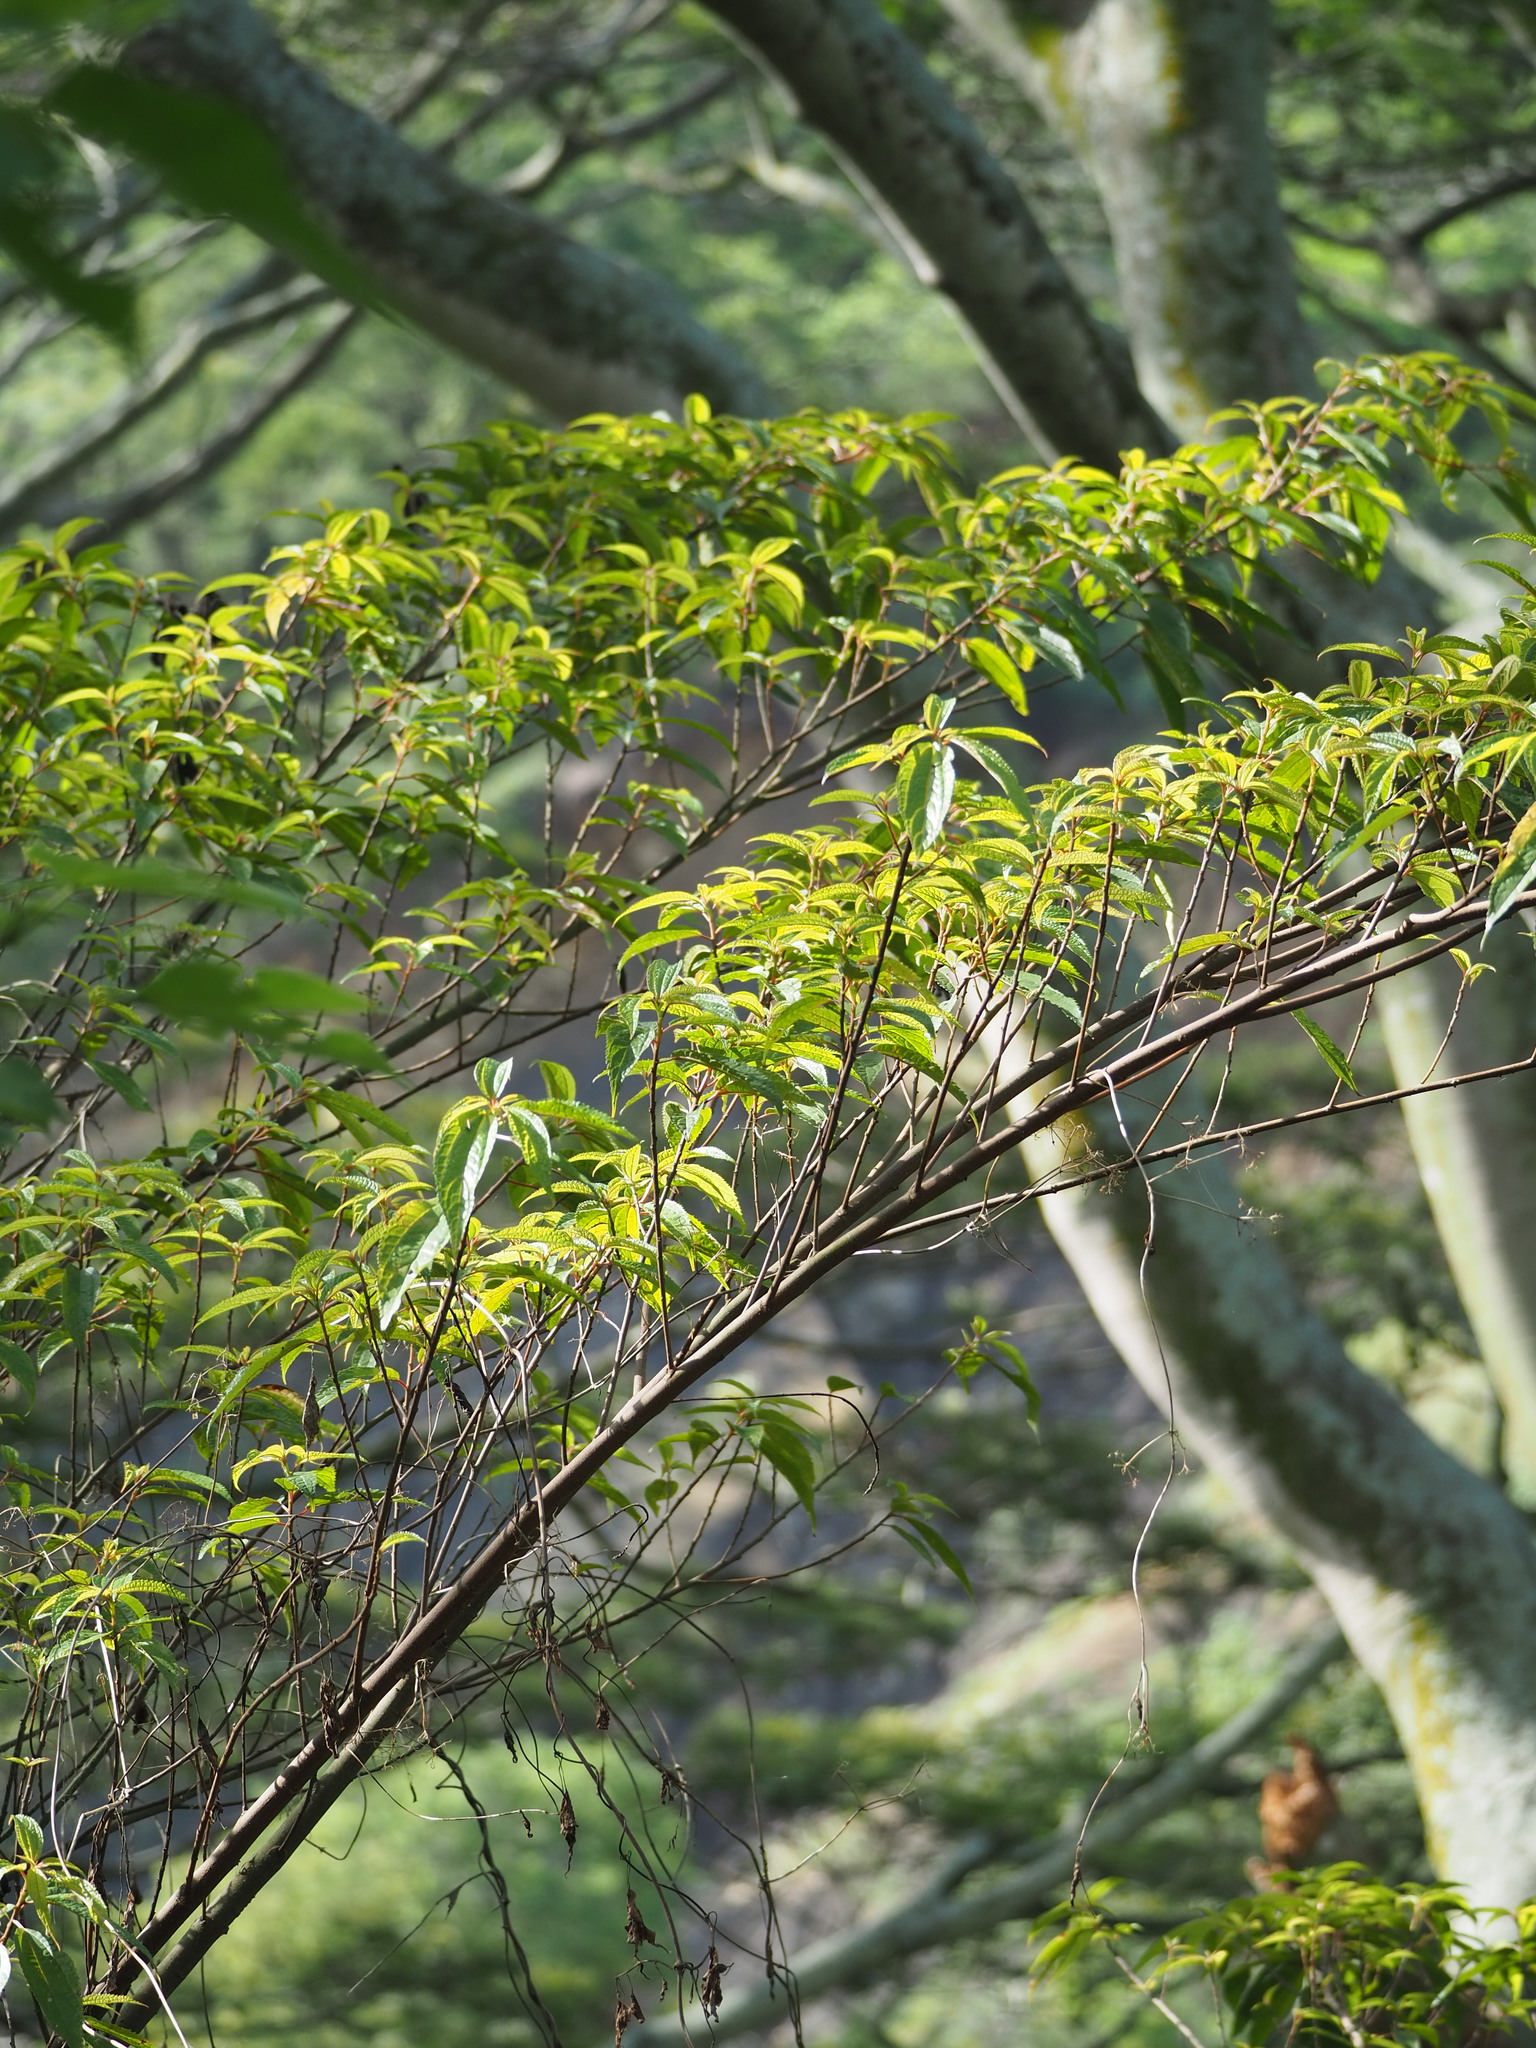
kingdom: Plantae
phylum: Tracheophyta
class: Magnoliopsida
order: Rosales
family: Urticaceae
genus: Oreocnide
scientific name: Oreocnide pedunculata
